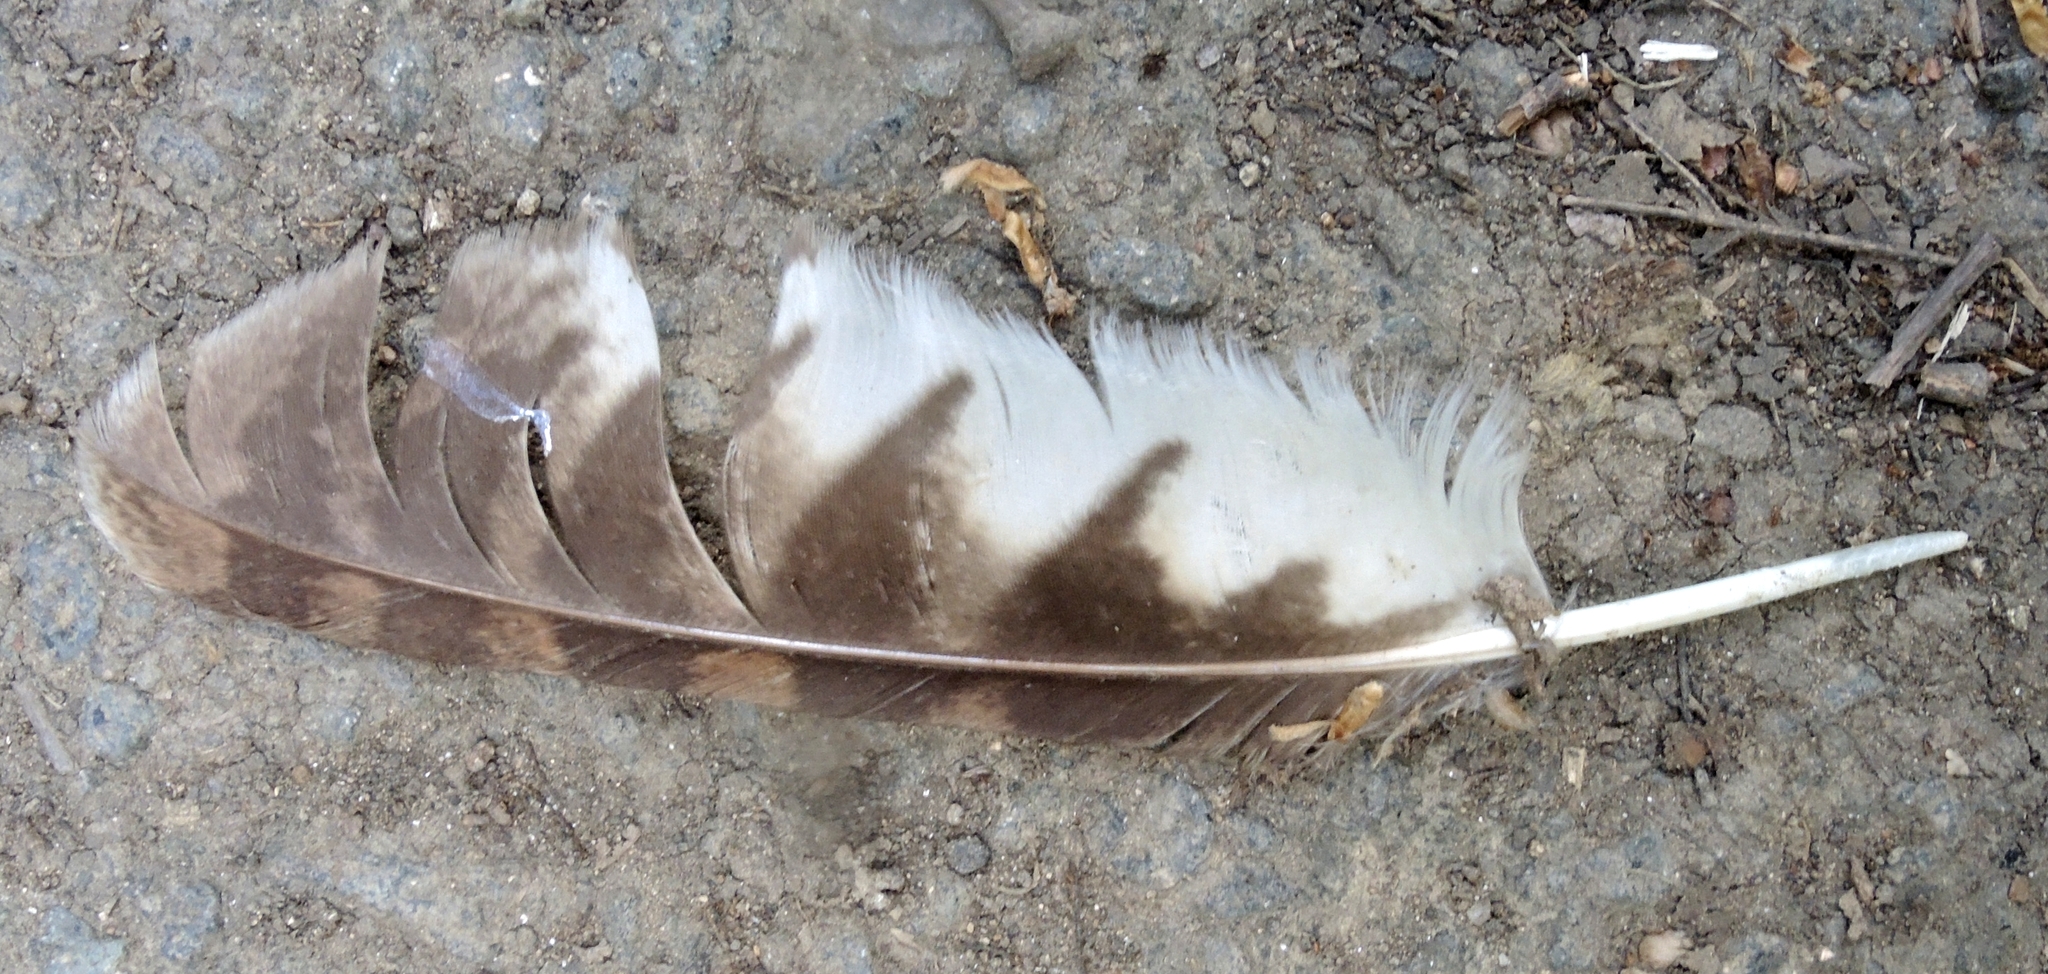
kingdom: Animalia
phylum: Chordata
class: Aves
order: Strigiformes
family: Strigidae
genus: Strix
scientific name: Strix aluco
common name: Tawny owl
